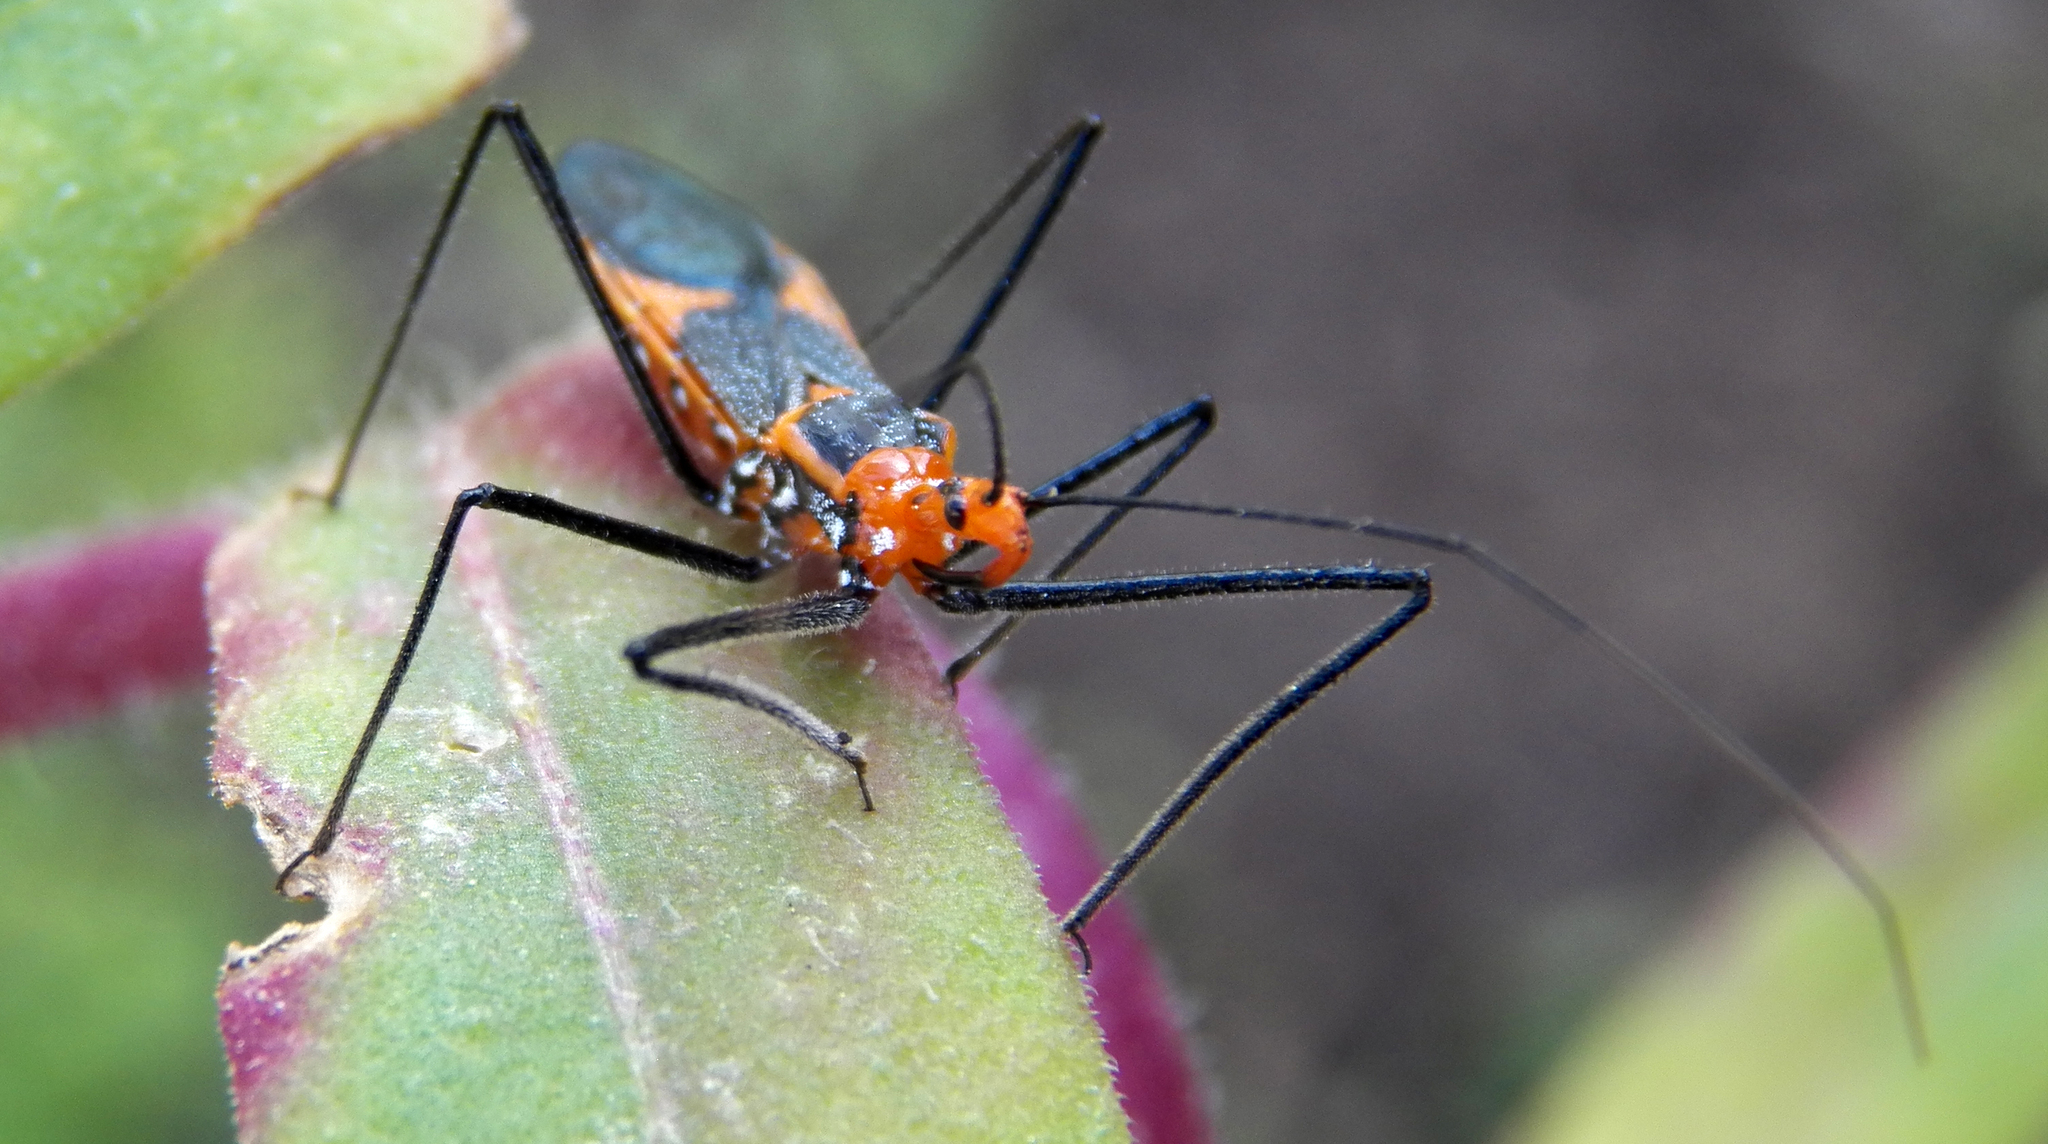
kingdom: Animalia
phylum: Arthropoda
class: Insecta
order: Hemiptera
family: Reduviidae
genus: Zelus
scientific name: Zelus longipes
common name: Milkweed assassin bug
